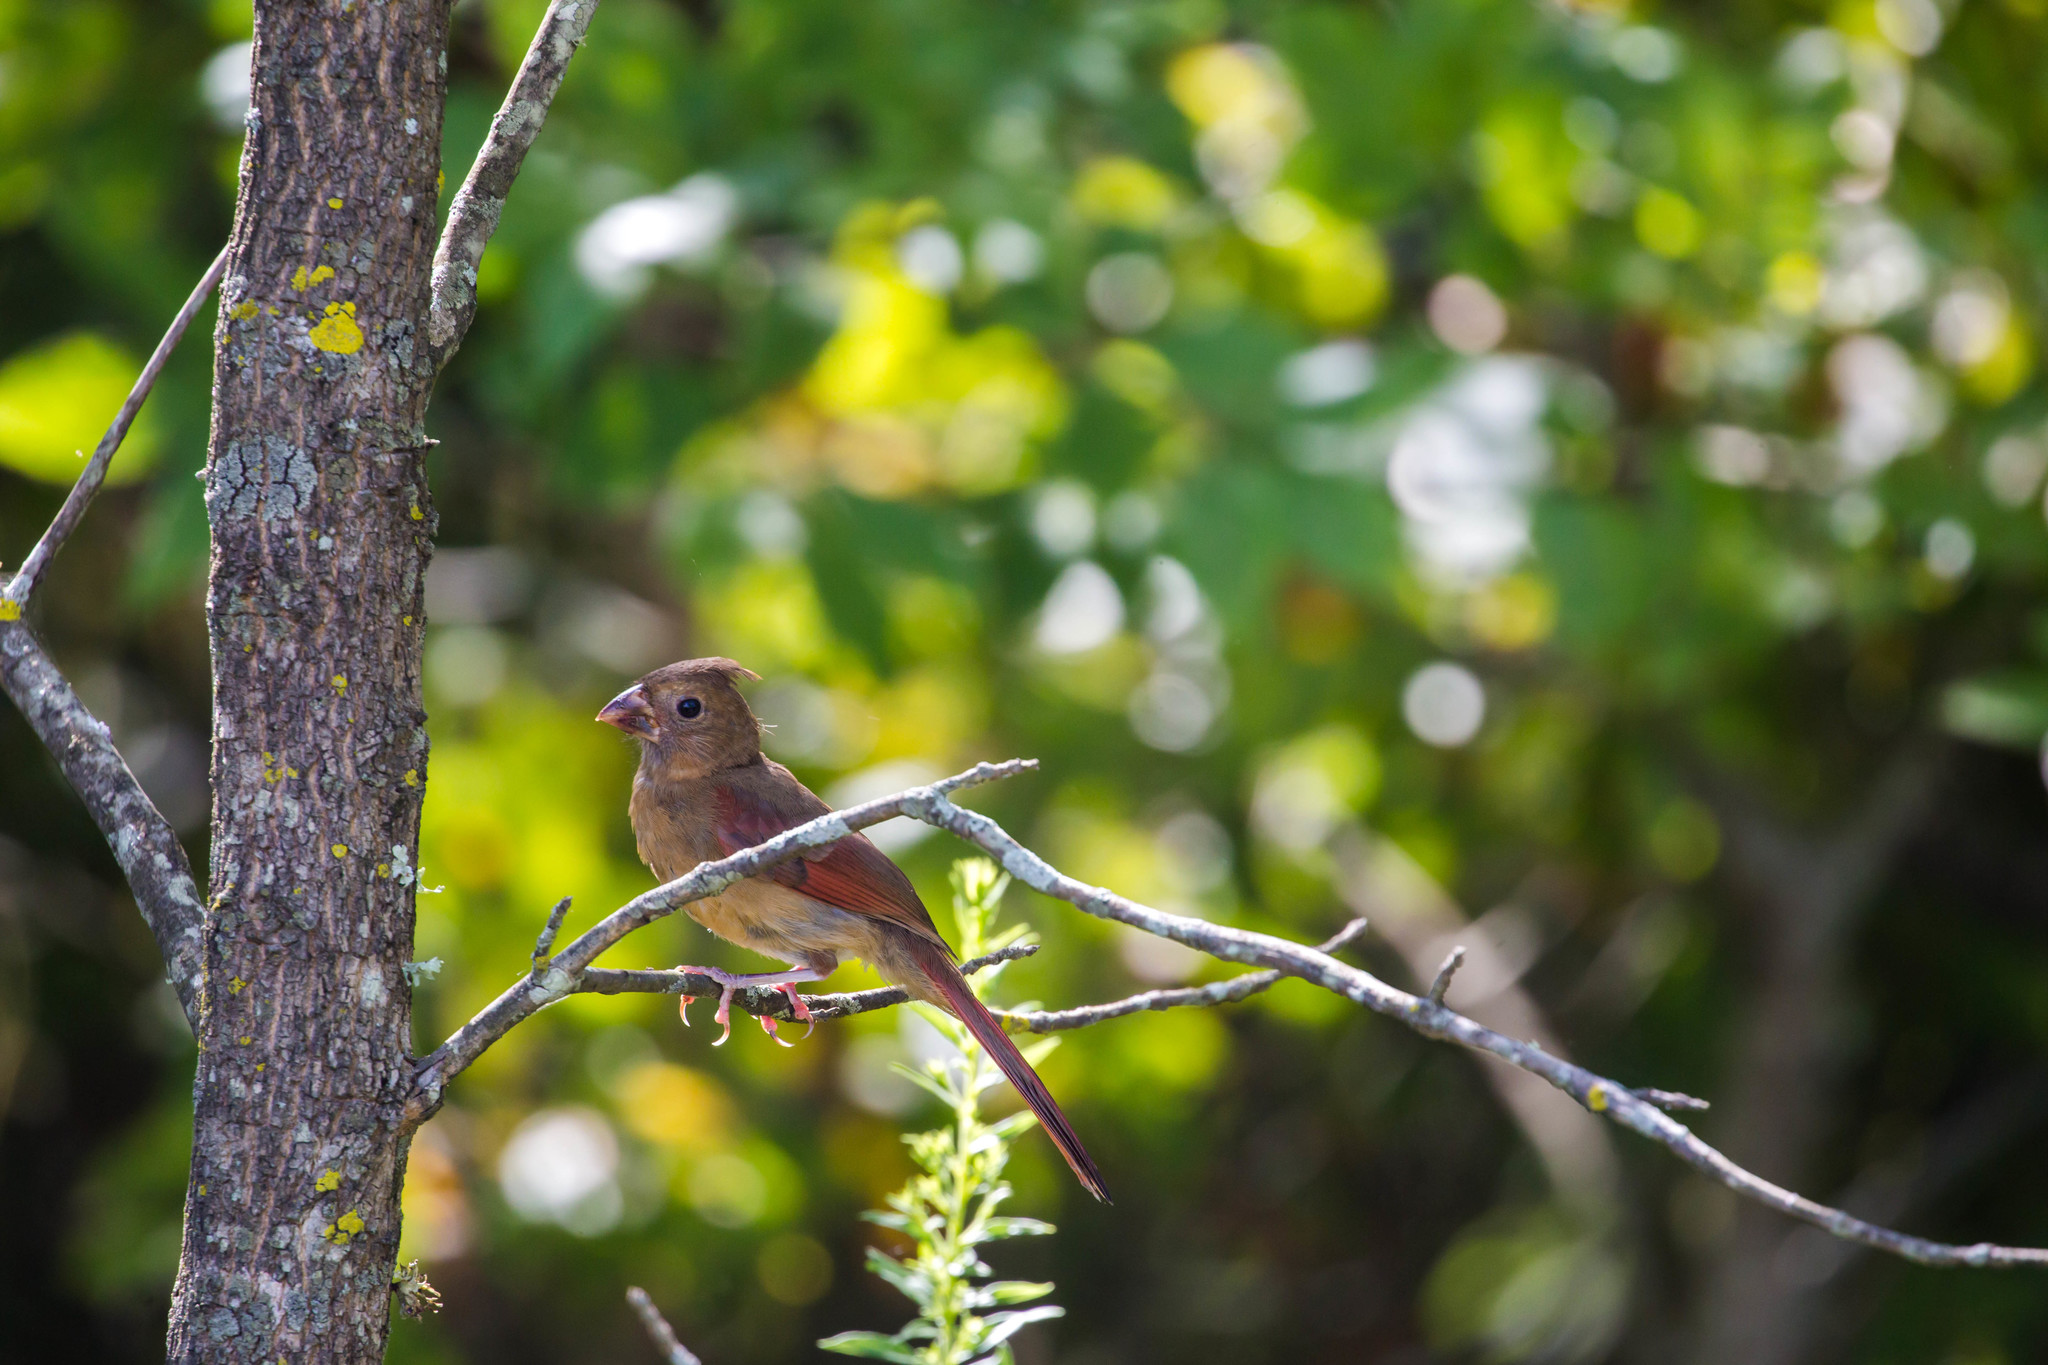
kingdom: Animalia
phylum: Chordata
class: Aves
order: Passeriformes
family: Cardinalidae
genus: Cardinalis
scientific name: Cardinalis cardinalis
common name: Northern cardinal
